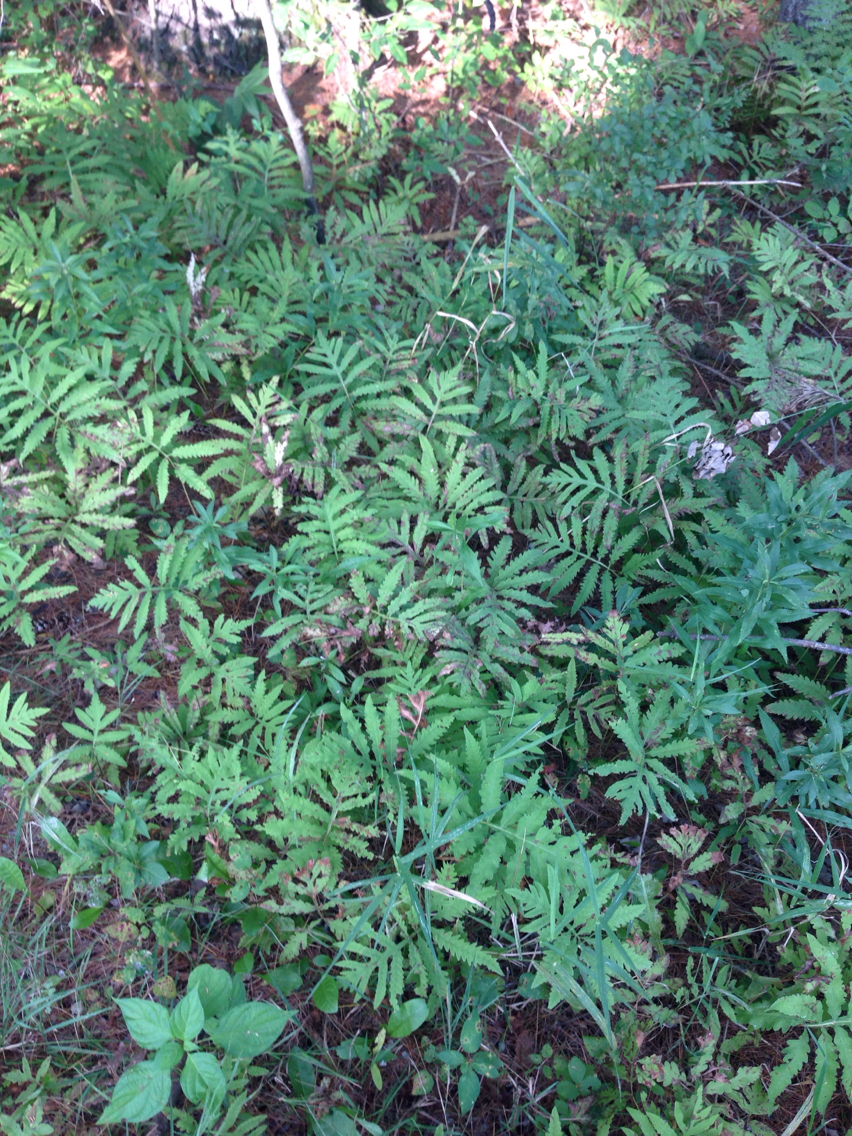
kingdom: Plantae
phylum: Tracheophyta
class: Polypodiopsida
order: Polypodiales
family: Onocleaceae
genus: Onoclea
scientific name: Onoclea sensibilis
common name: Sensitive fern
